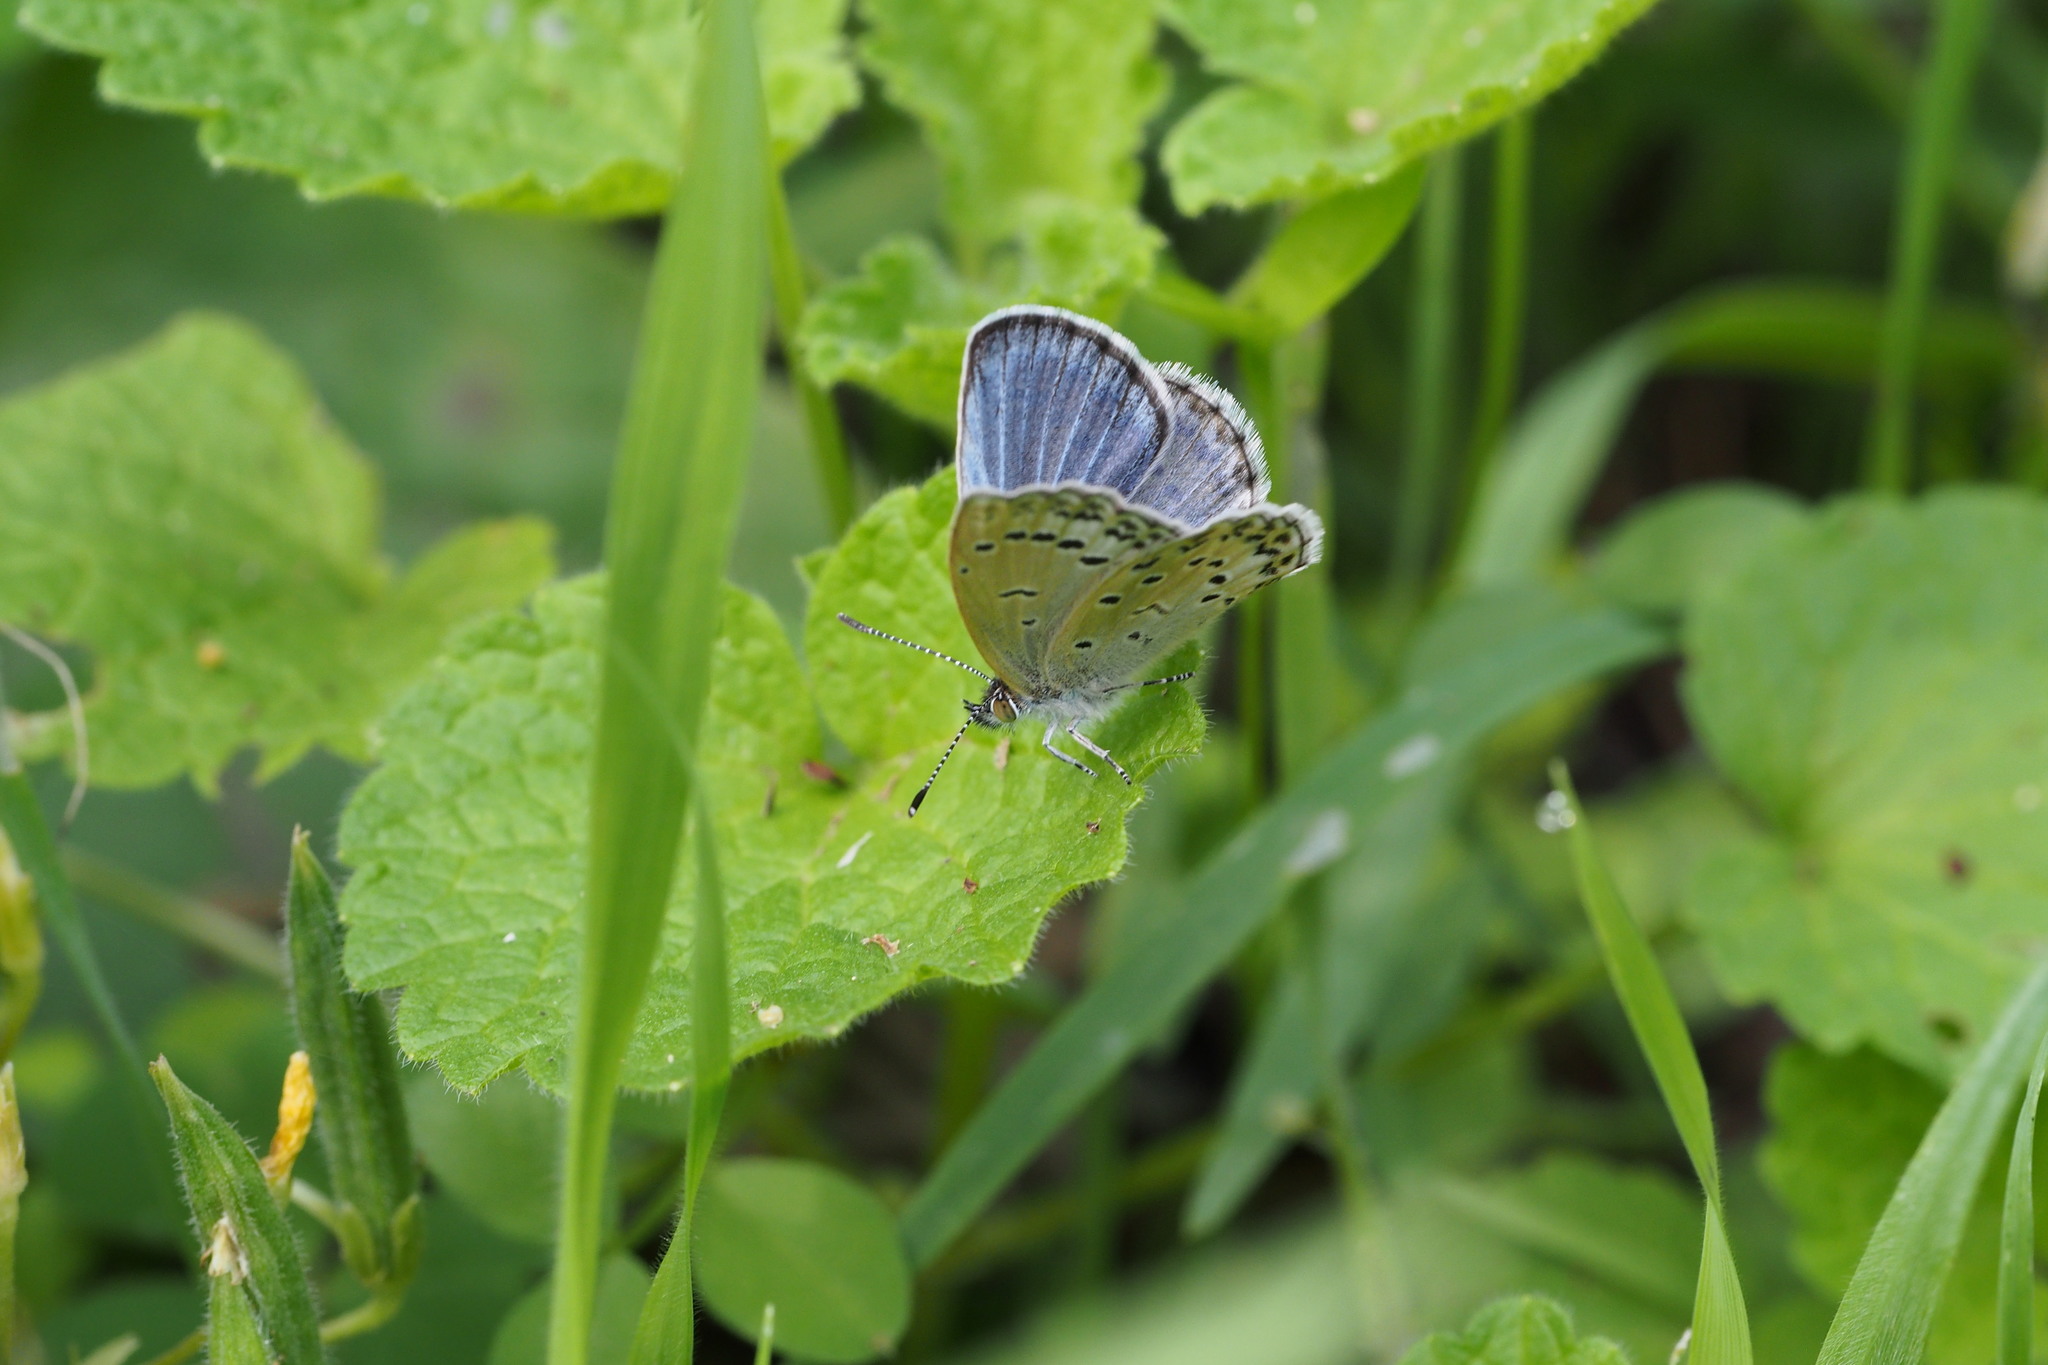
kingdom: Animalia
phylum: Arthropoda
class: Insecta
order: Lepidoptera
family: Lycaenidae
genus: Pseudozizeeria
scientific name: Pseudozizeeria maha
